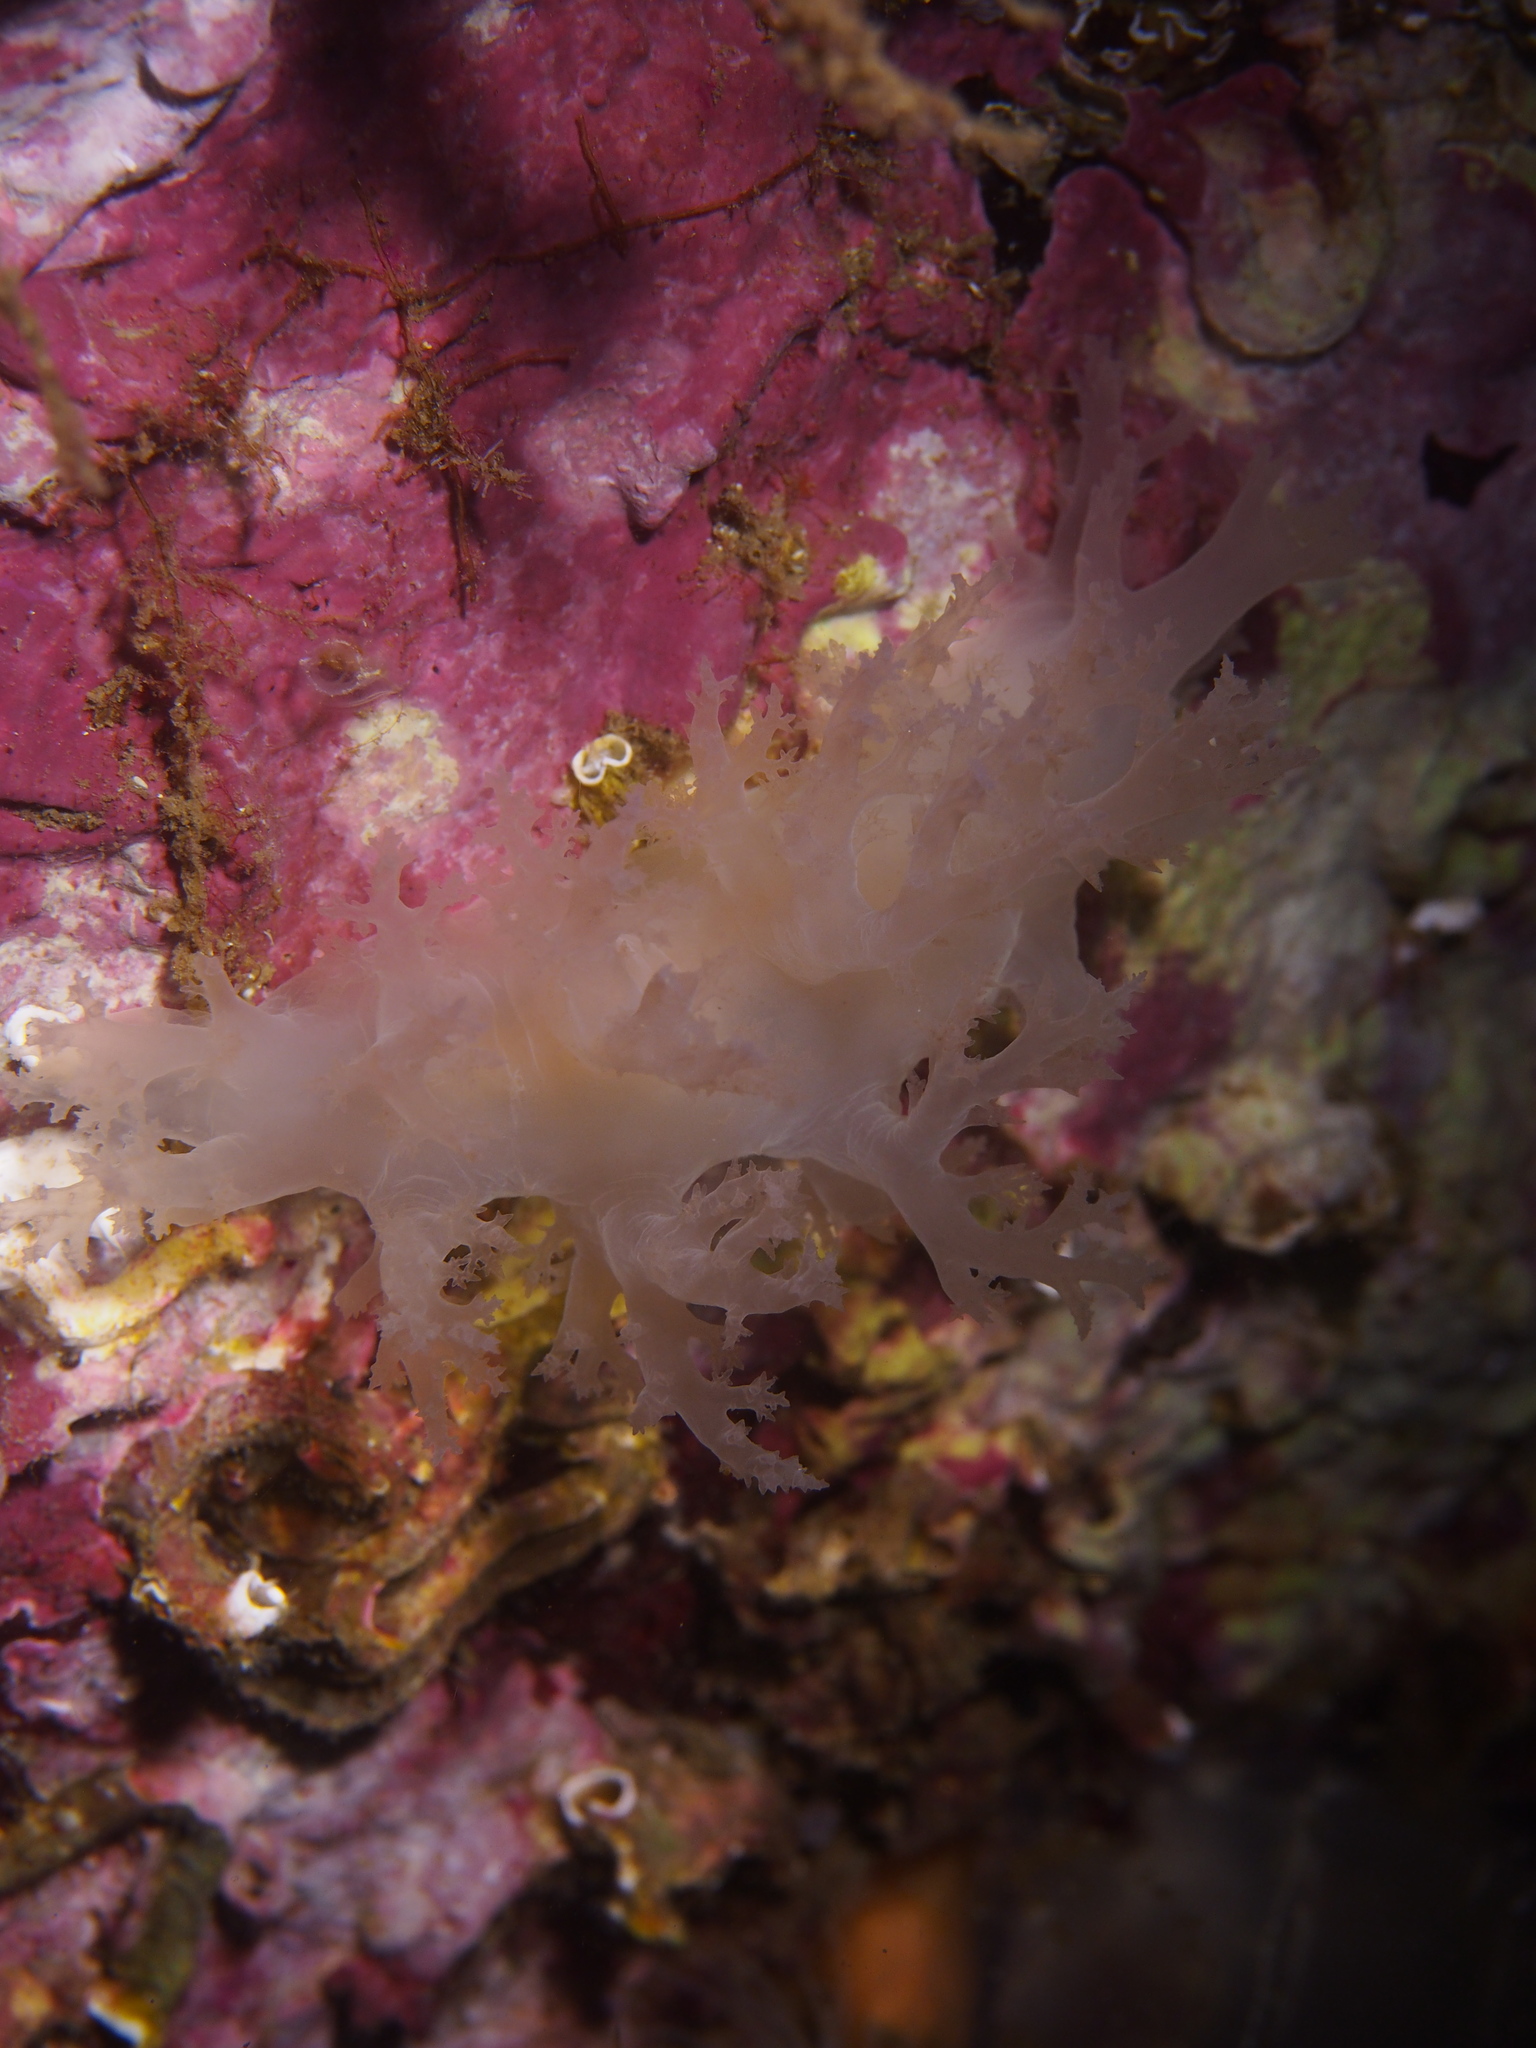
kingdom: Animalia
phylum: Mollusca
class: Gastropoda
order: Nudibranchia
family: Dendronotidae
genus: Dendronotus
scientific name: Dendronotus lacteus
